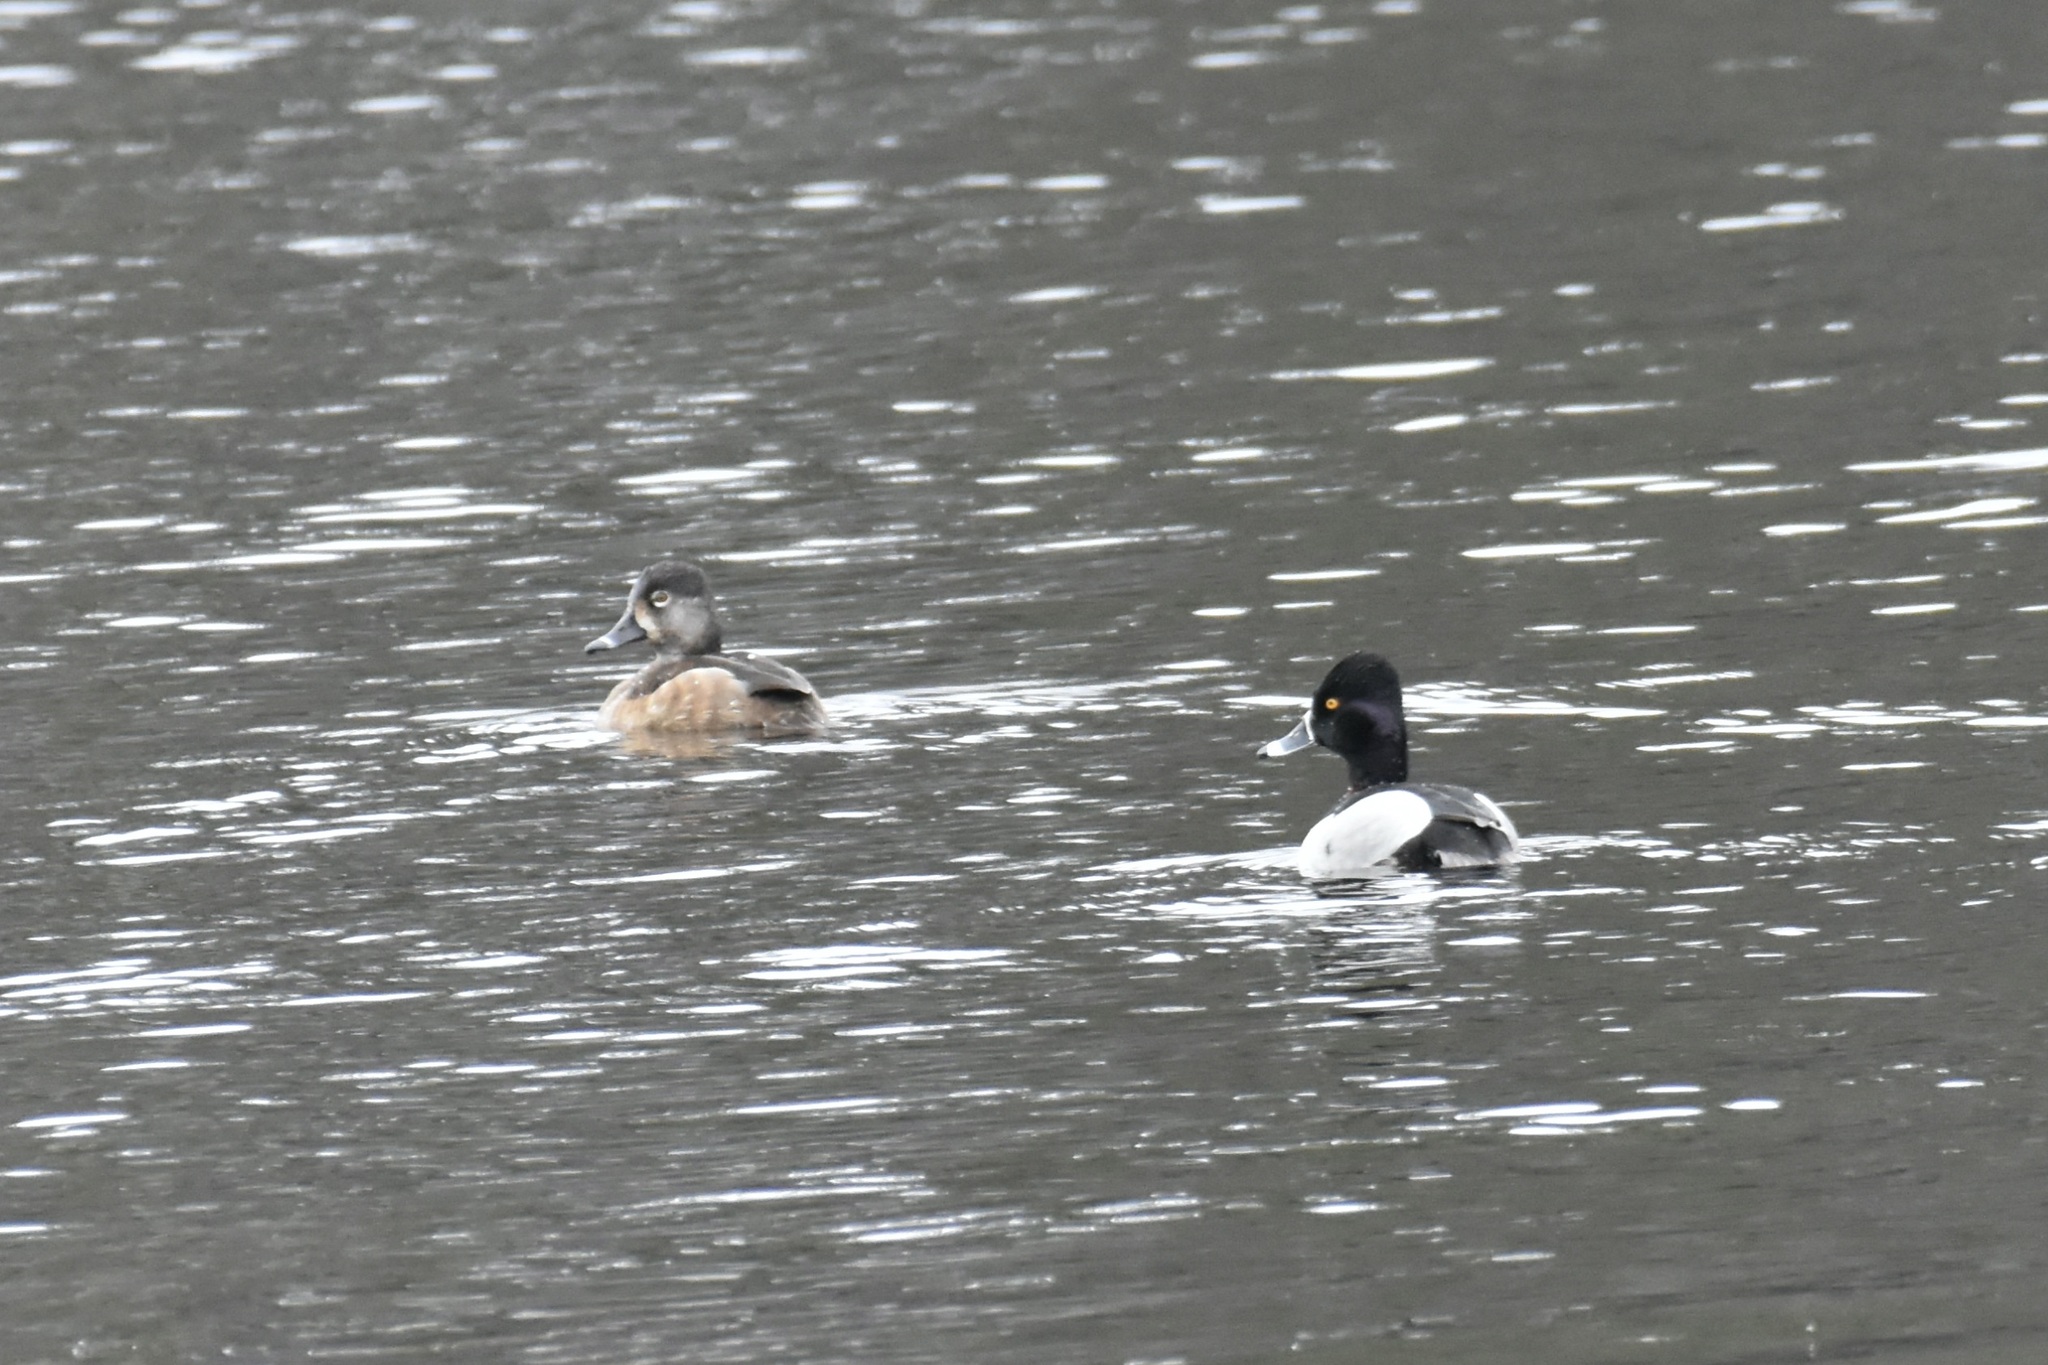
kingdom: Animalia
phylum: Chordata
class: Aves
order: Anseriformes
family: Anatidae
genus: Aythya
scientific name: Aythya collaris
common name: Ring-necked duck
